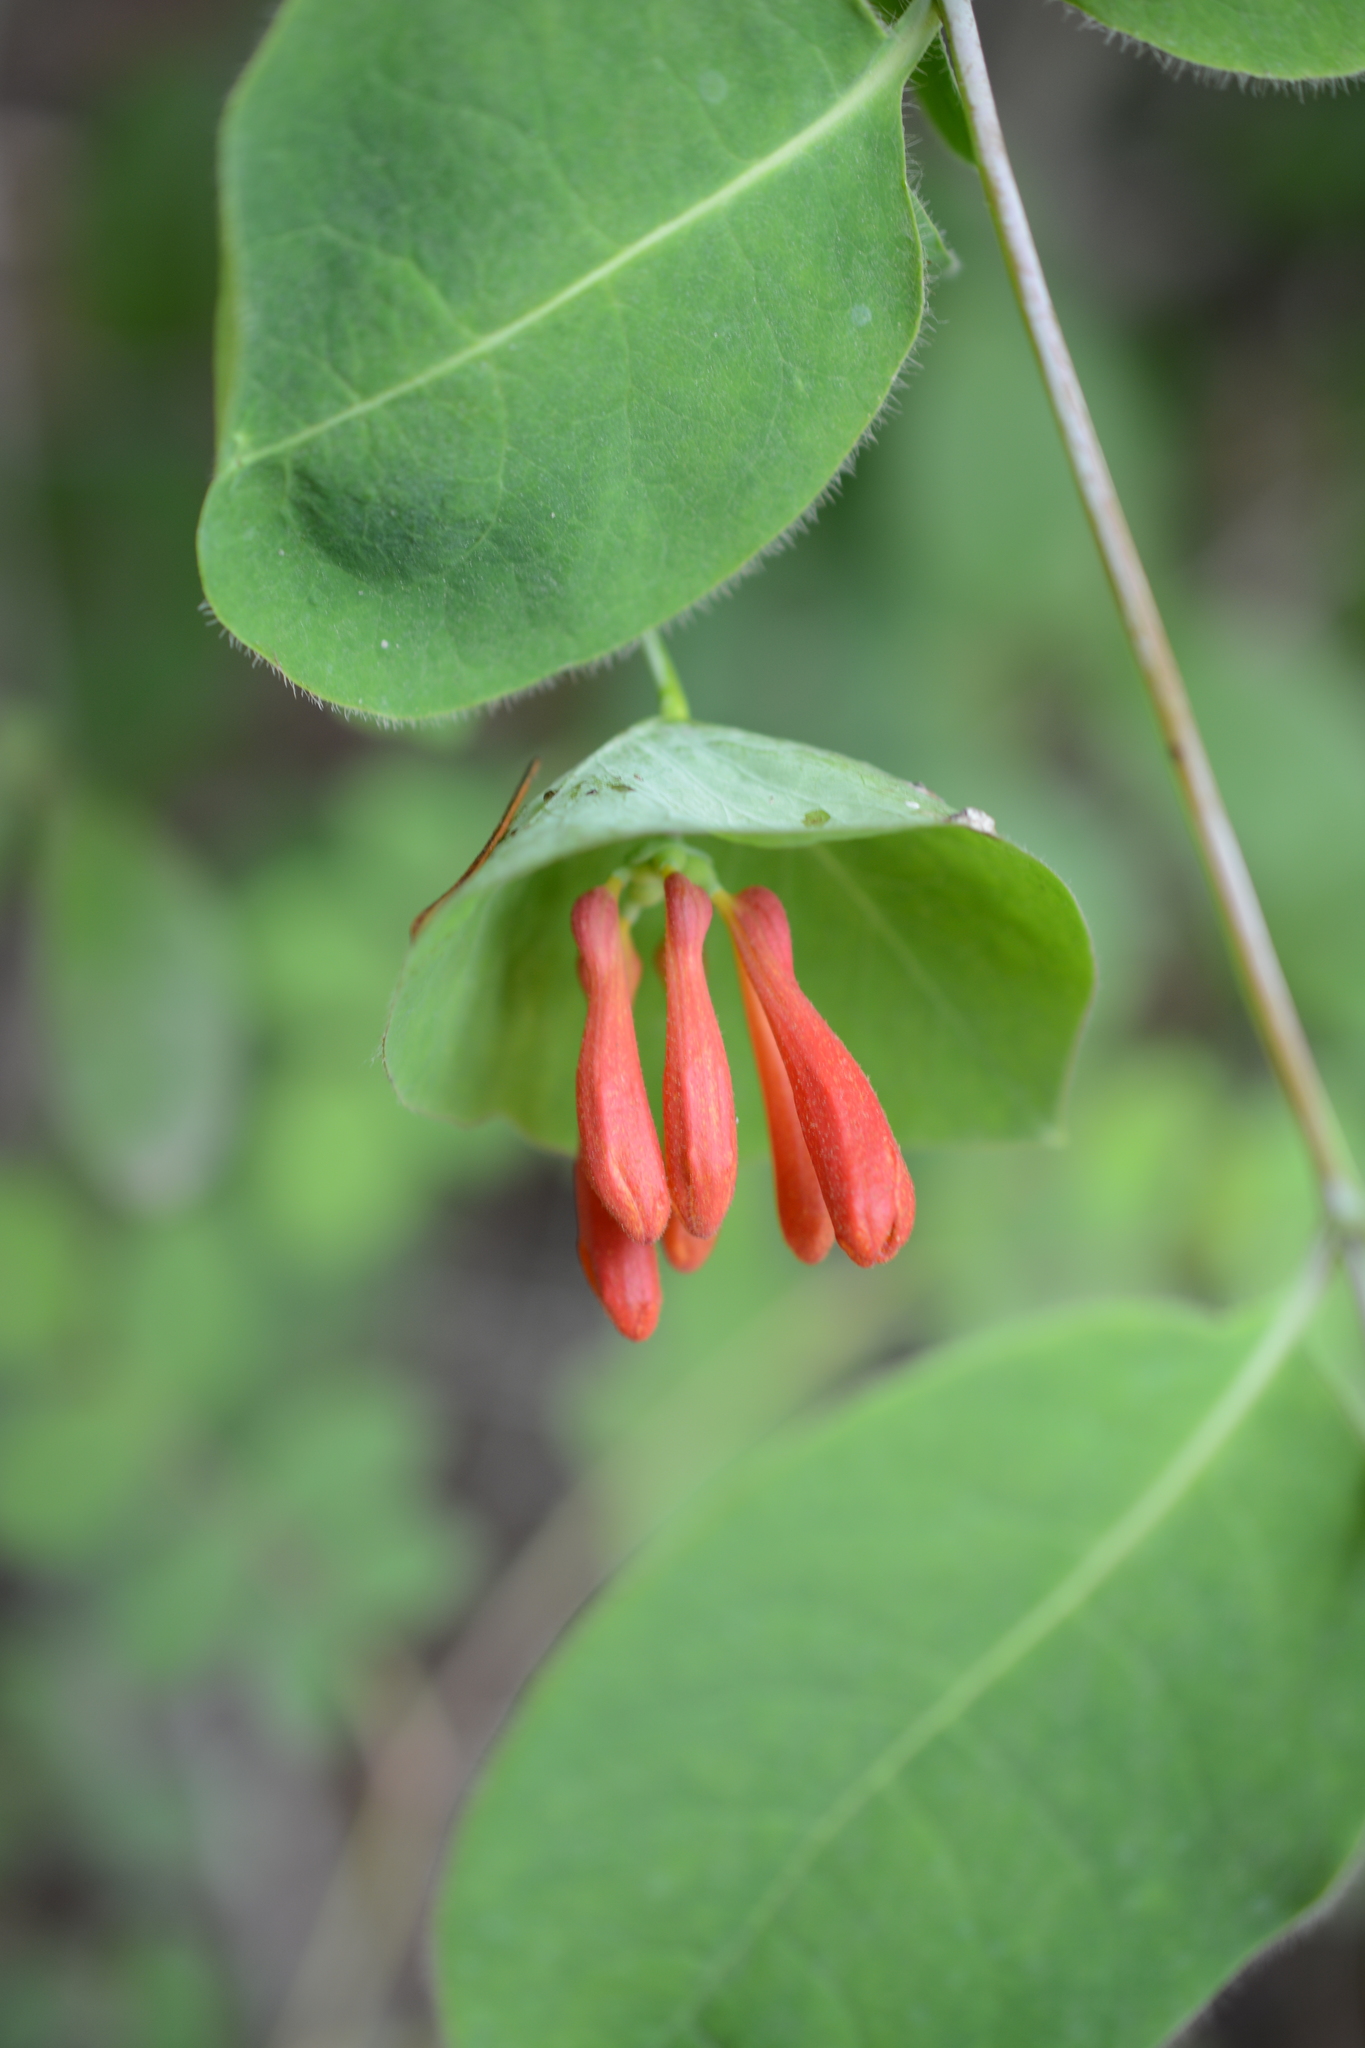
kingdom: Plantae
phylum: Tracheophyta
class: Magnoliopsida
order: Dipsacales
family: Caprifoliaceae
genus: Lonicera
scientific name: Lonicera ciliosa
